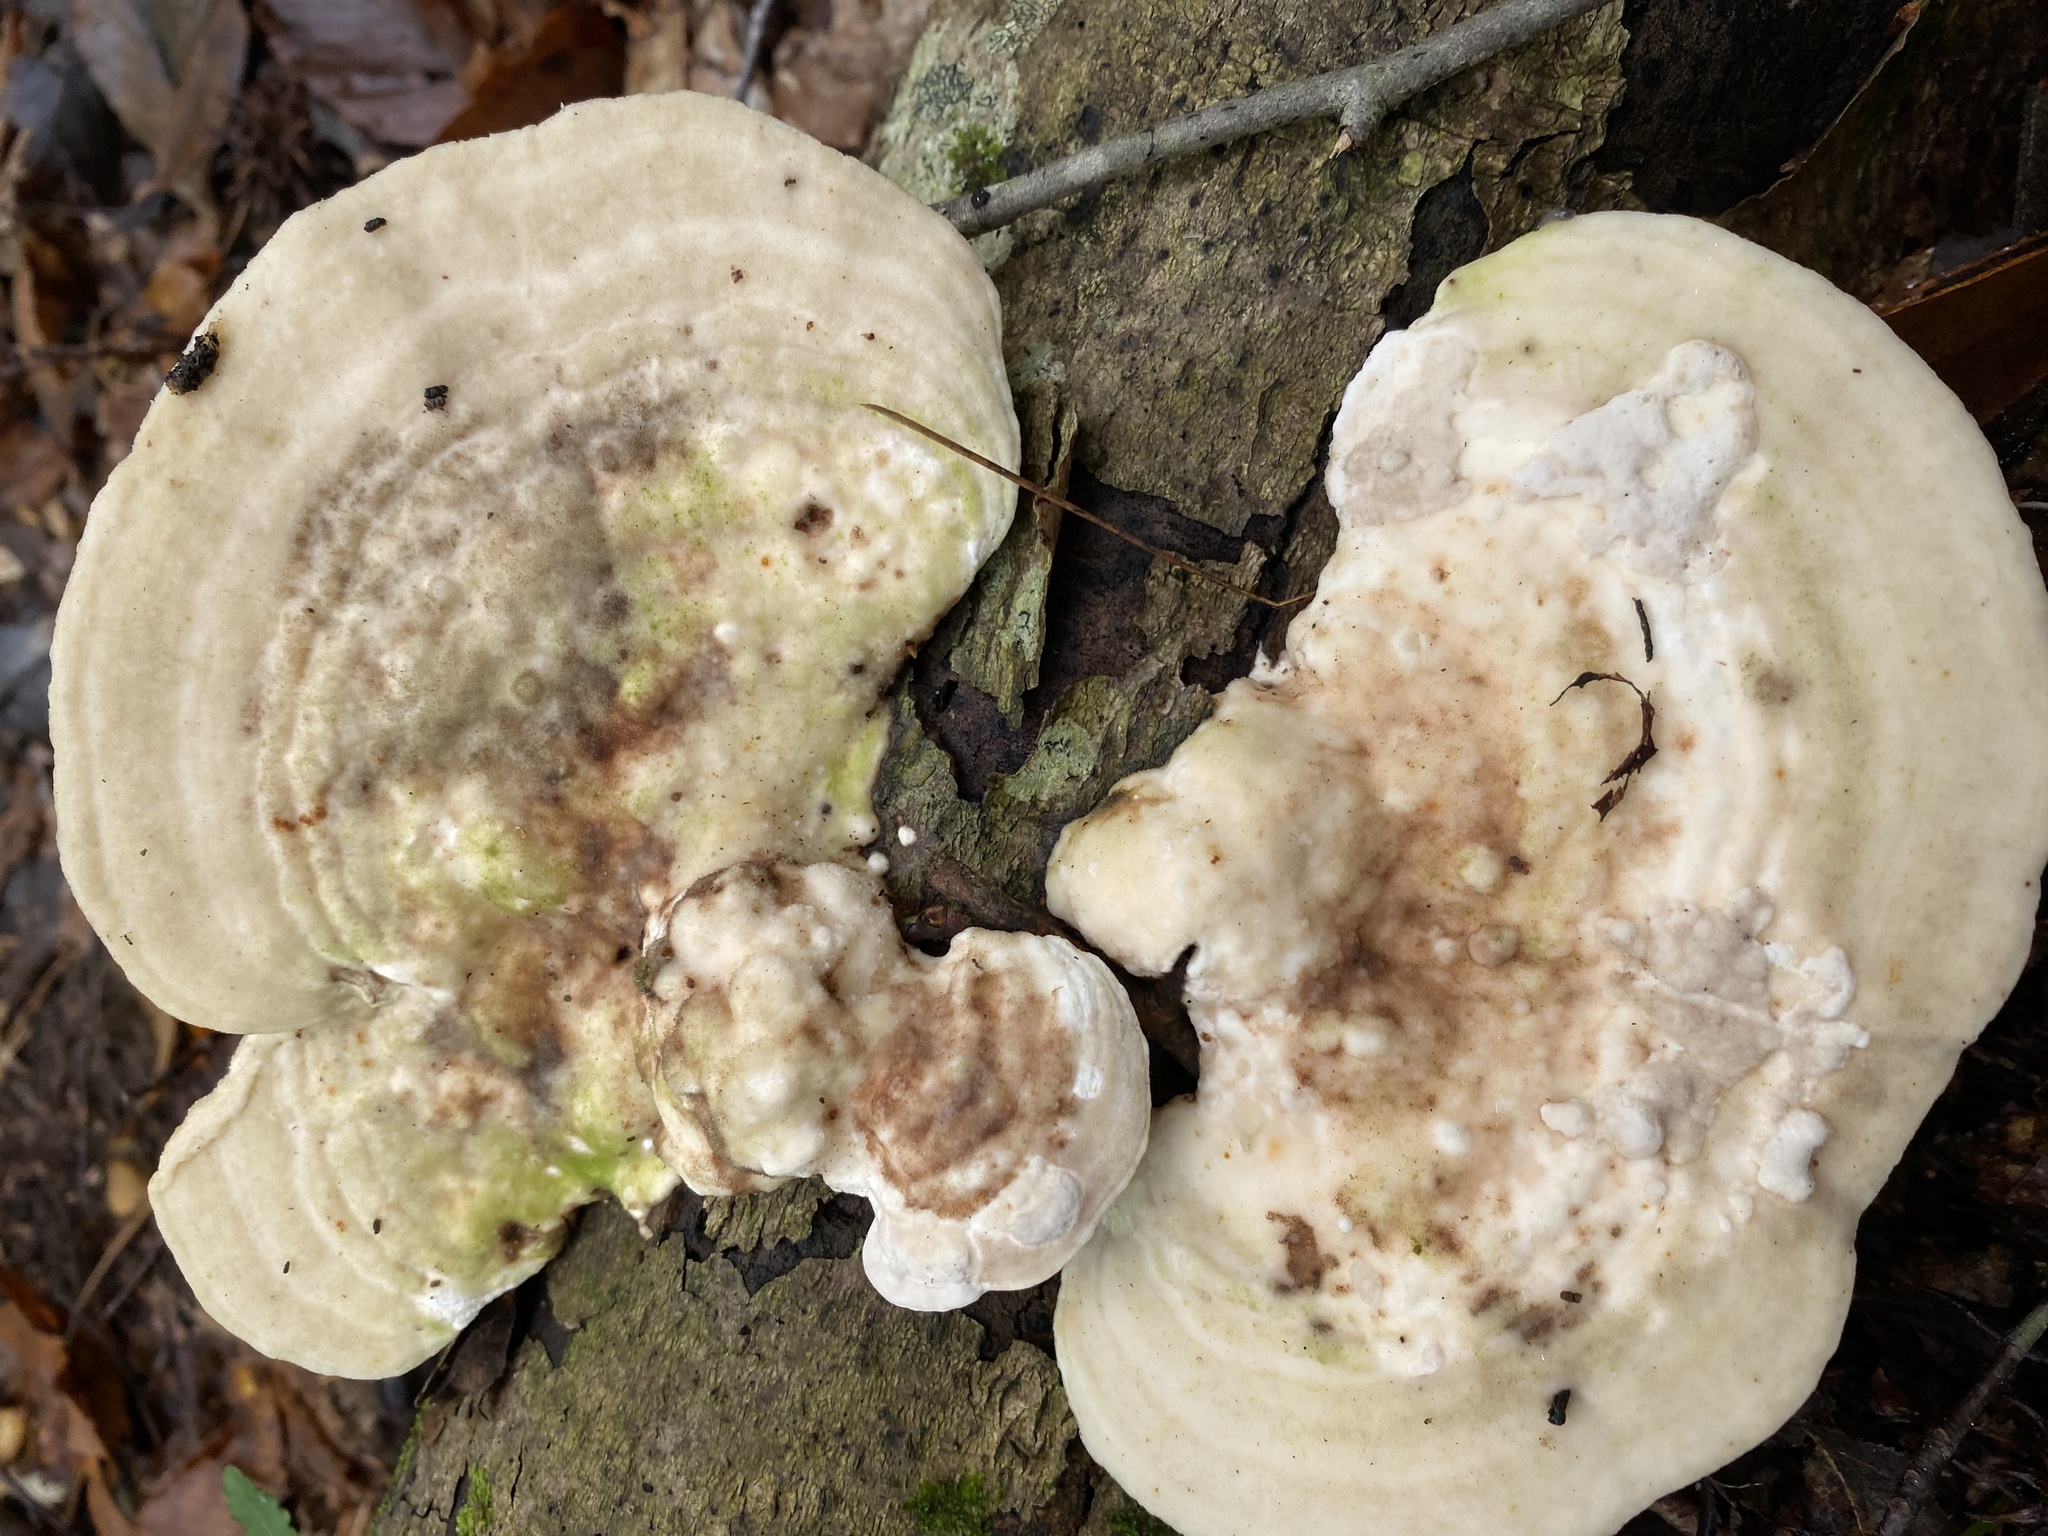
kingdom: Fungi
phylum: Basidiomycota
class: Agaricomycetes
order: Polyporales
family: Polyporaceae
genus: Trametes
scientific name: Trametes gibbosa
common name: Lumpy bracket
